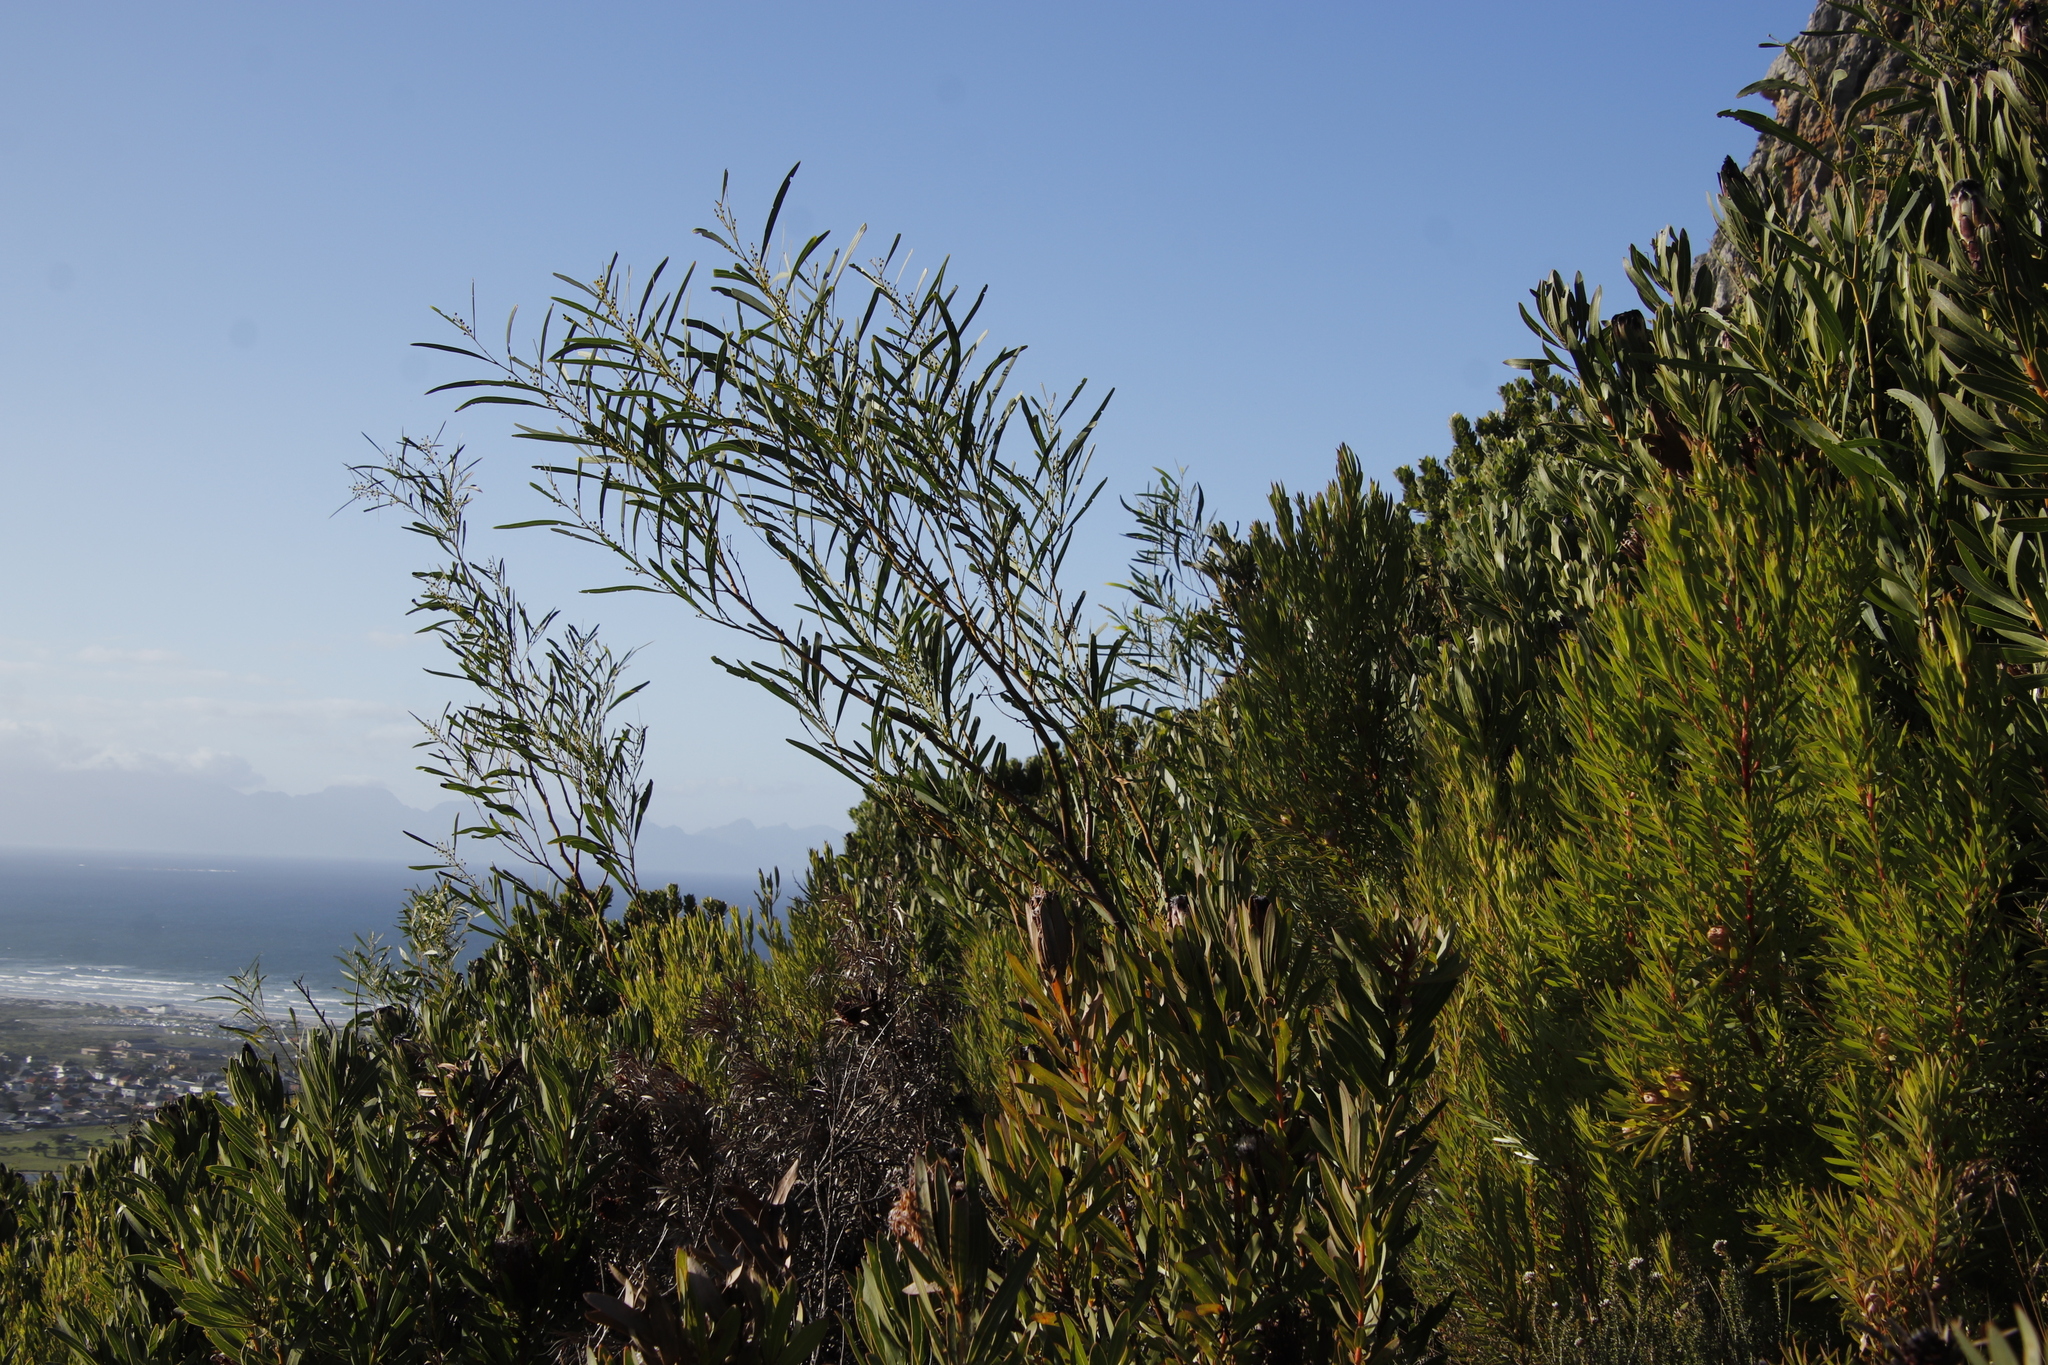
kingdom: Plantae
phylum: Tracheophyta
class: Magnoliopsida
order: Fabales
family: Fabaceae
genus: Acacia
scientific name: Acacia saligna
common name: Orange wattle
